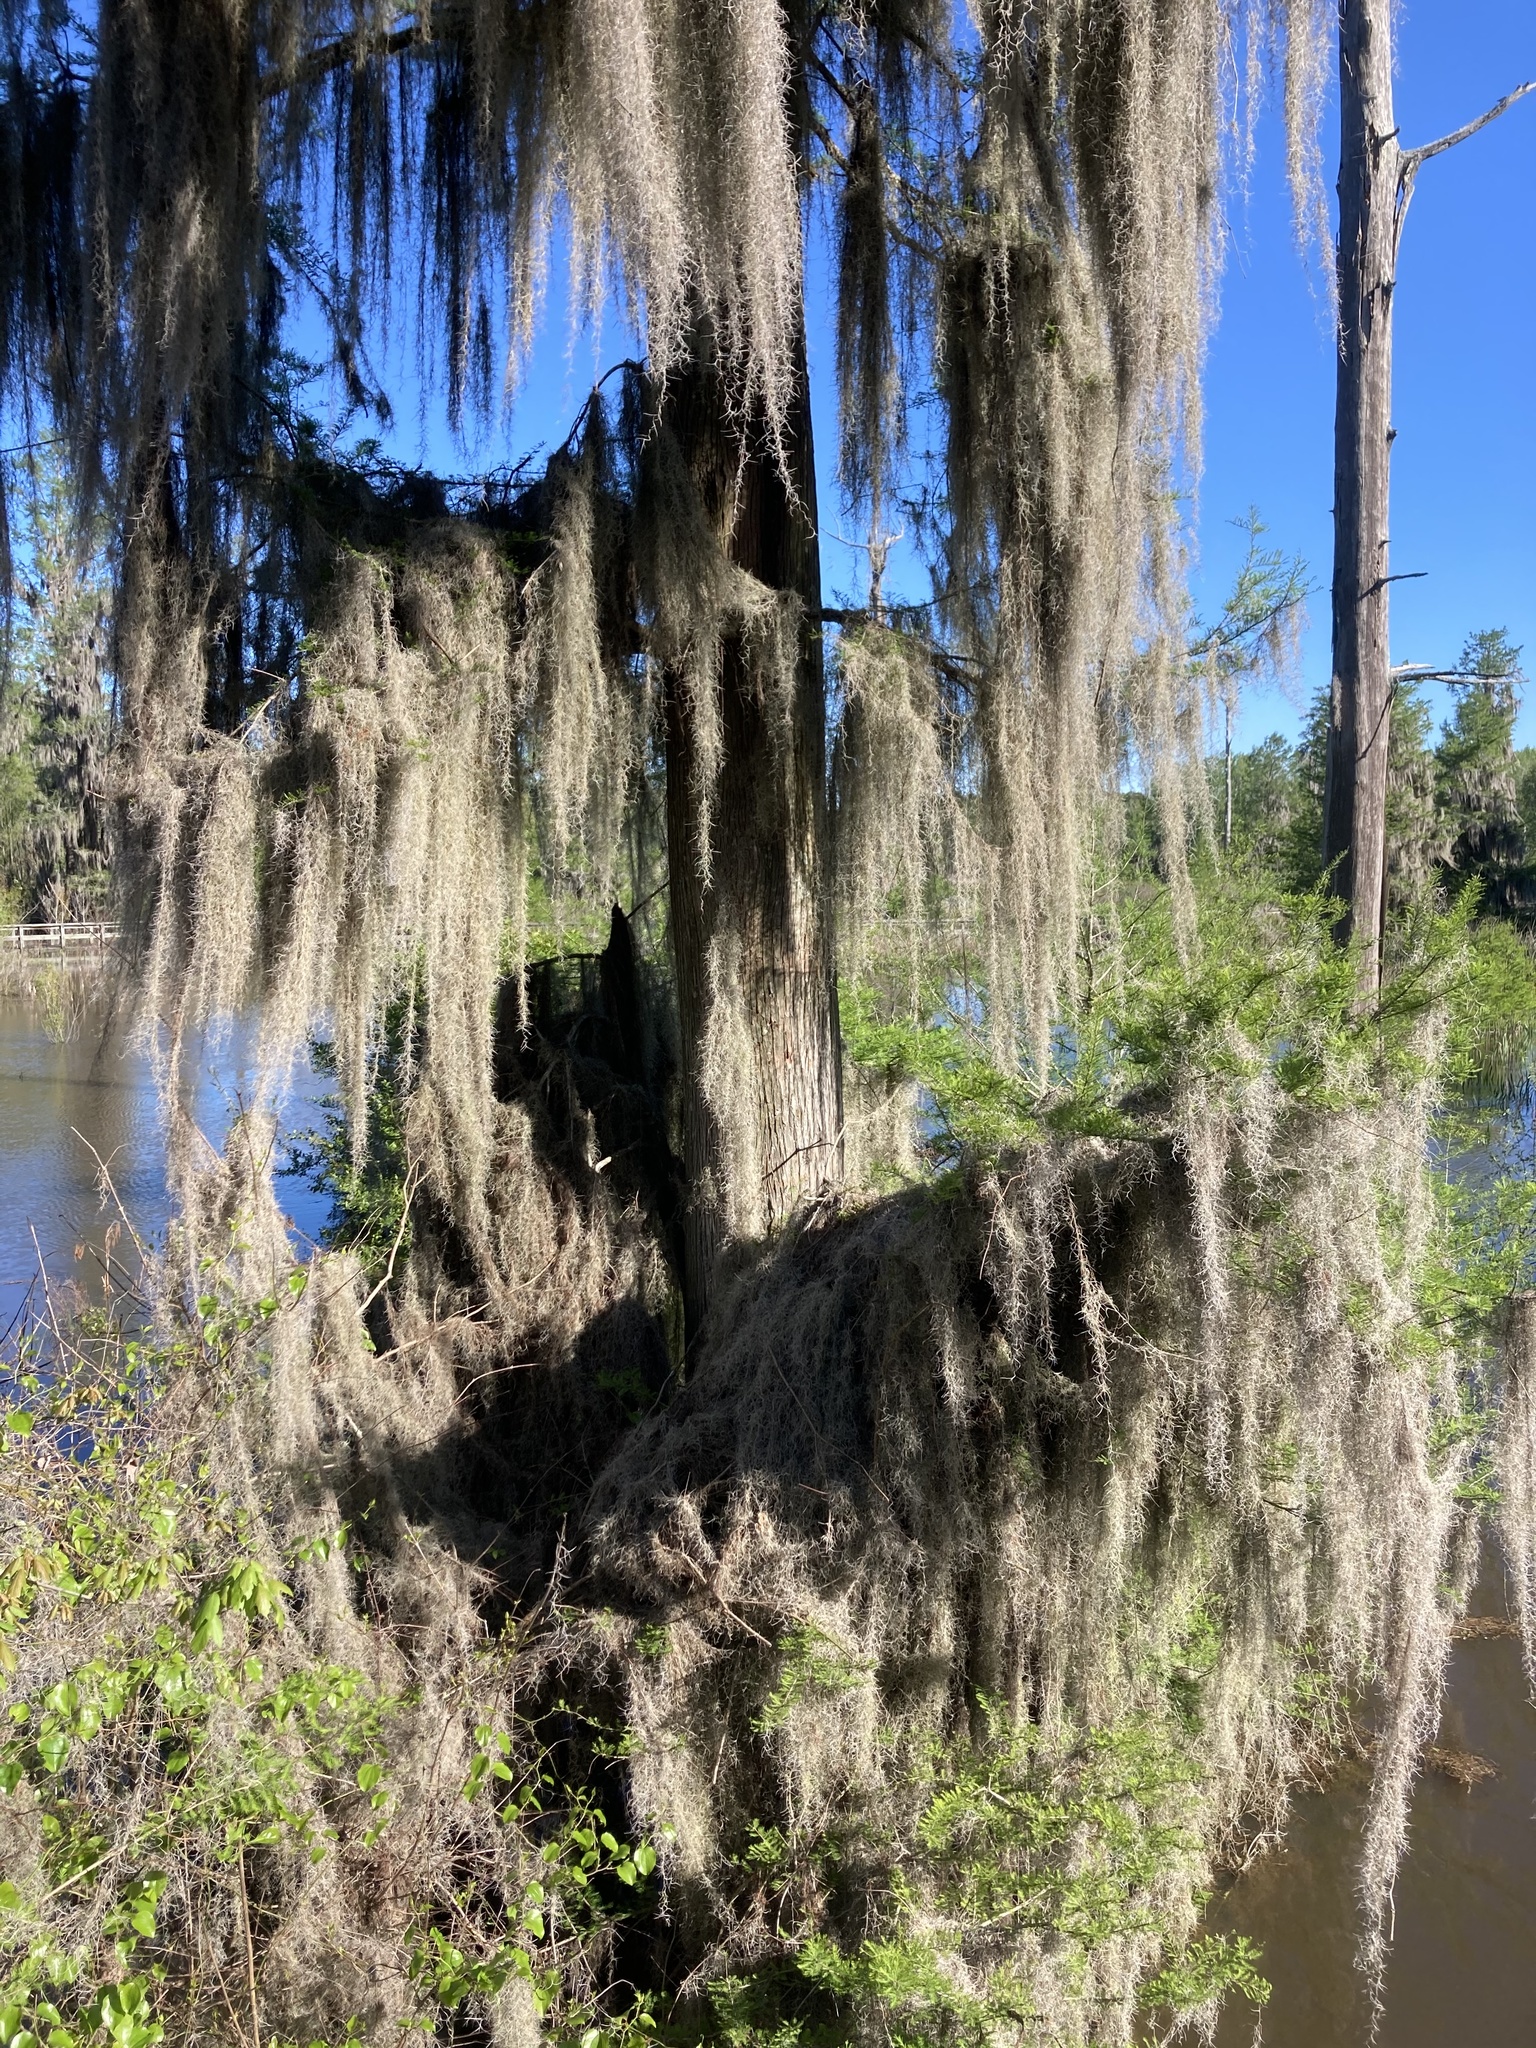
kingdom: Plantae
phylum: Tracheophyta
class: Liliopsida
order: Poales
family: Bromeliaceae
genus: Tillandsia
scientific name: Tillandsia usneoides
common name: Spanish moss
